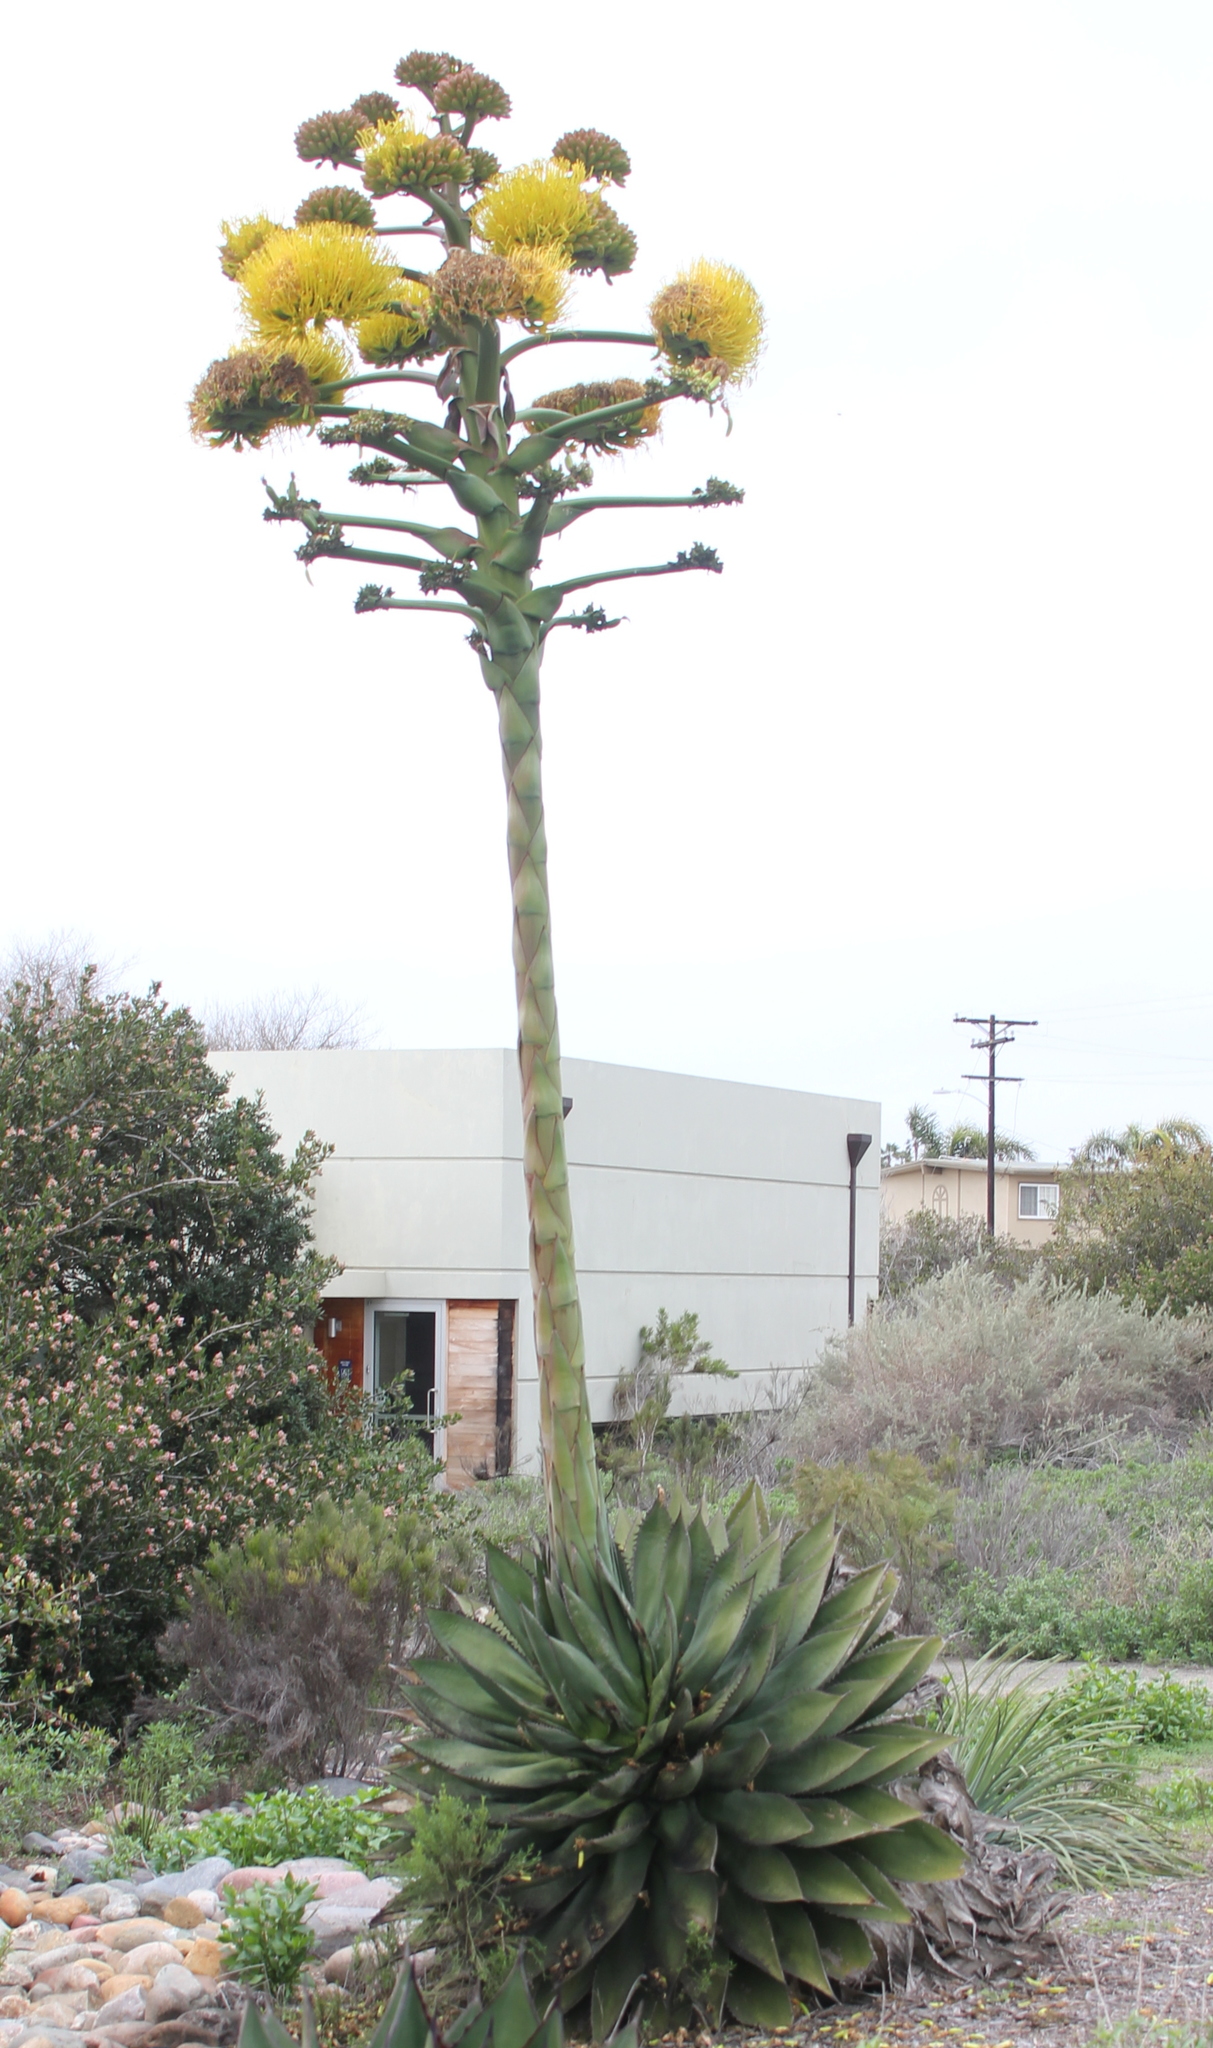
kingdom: Plantae
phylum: Tracheophyta
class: Liliopsida
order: Asparagales
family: Asparagaceae
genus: Agave
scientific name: Agave shawii
